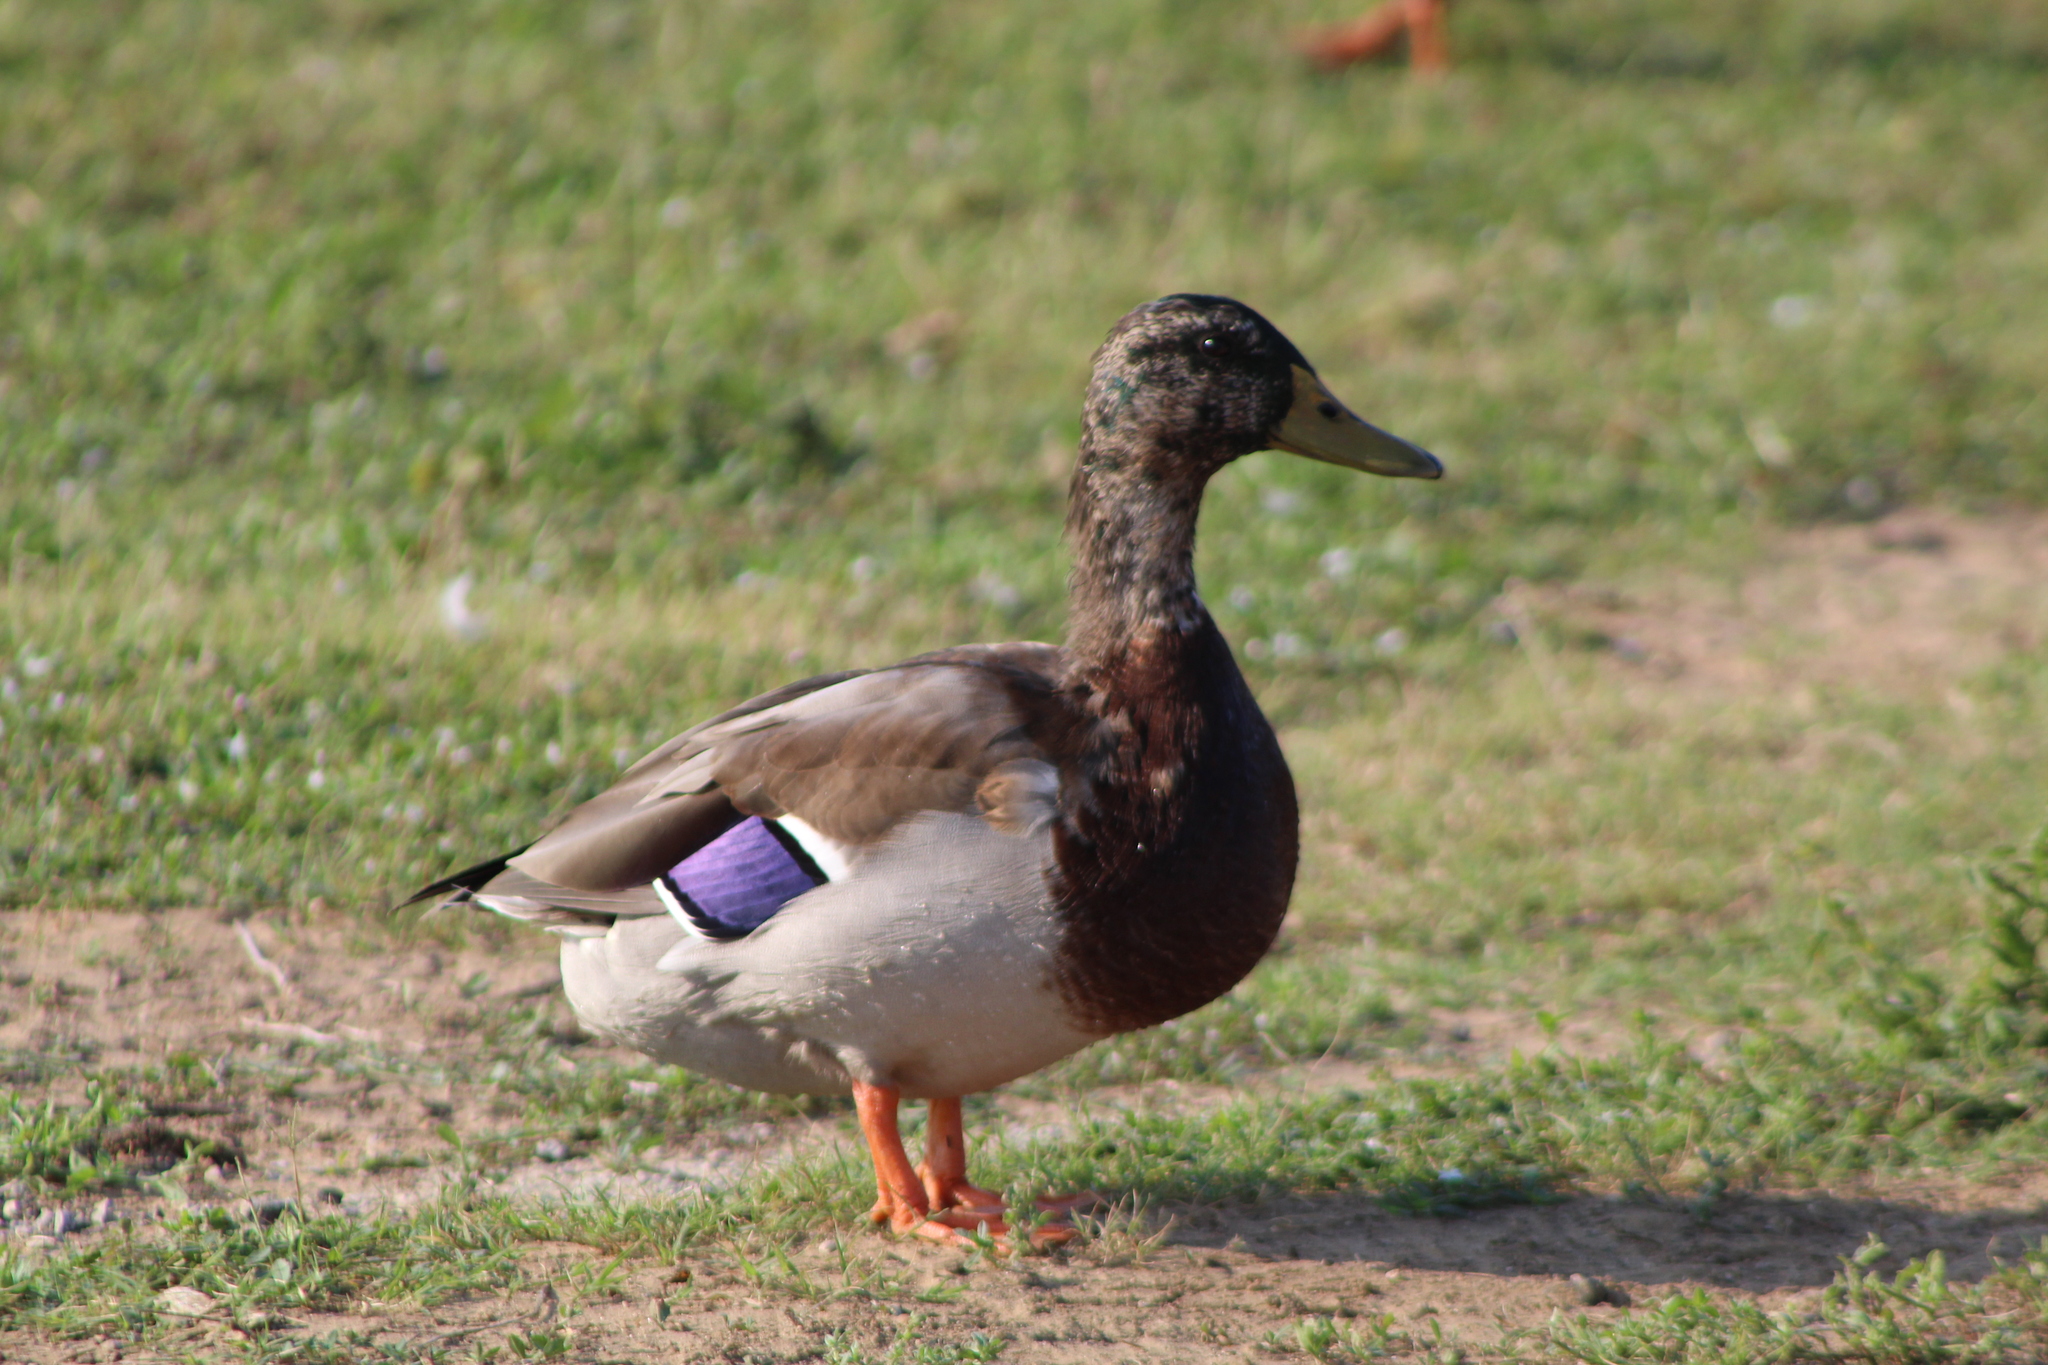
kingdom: Animalia
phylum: Chordata
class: Aves
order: Anseriformes
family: Anatidae
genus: Anas
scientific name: Anas platyrhynchos
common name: Mallard
